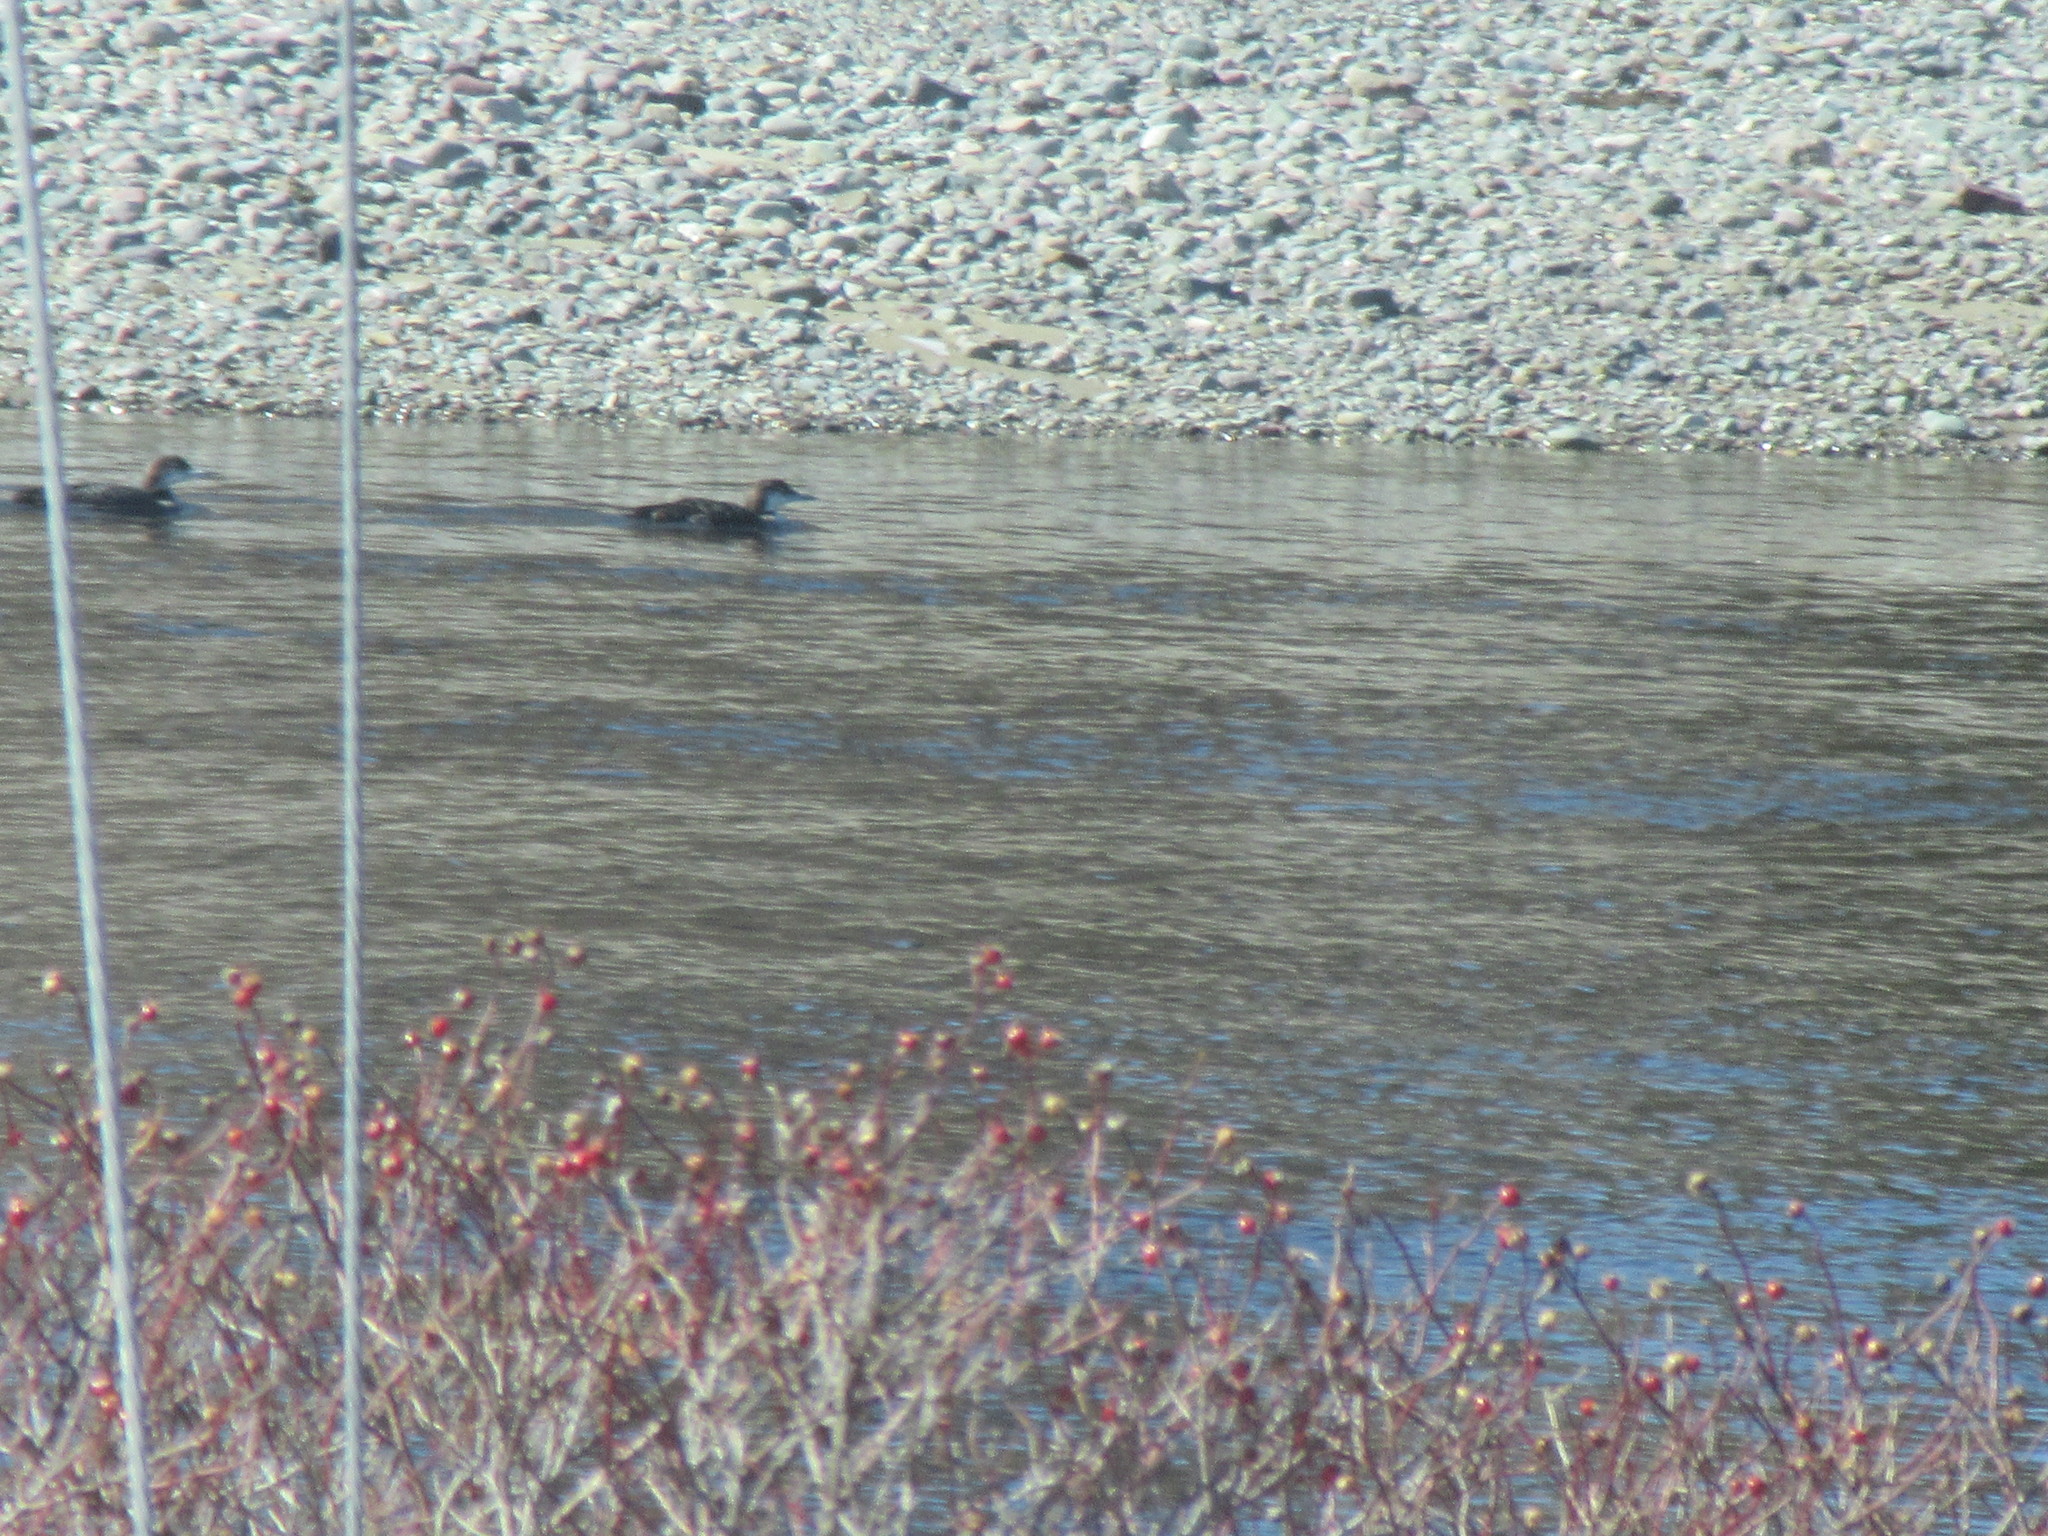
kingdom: Animalia
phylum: Chordata
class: Aves
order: Gaviiformes
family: Gaviidae
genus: Gavia
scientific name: Gavia immer
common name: Common loon
